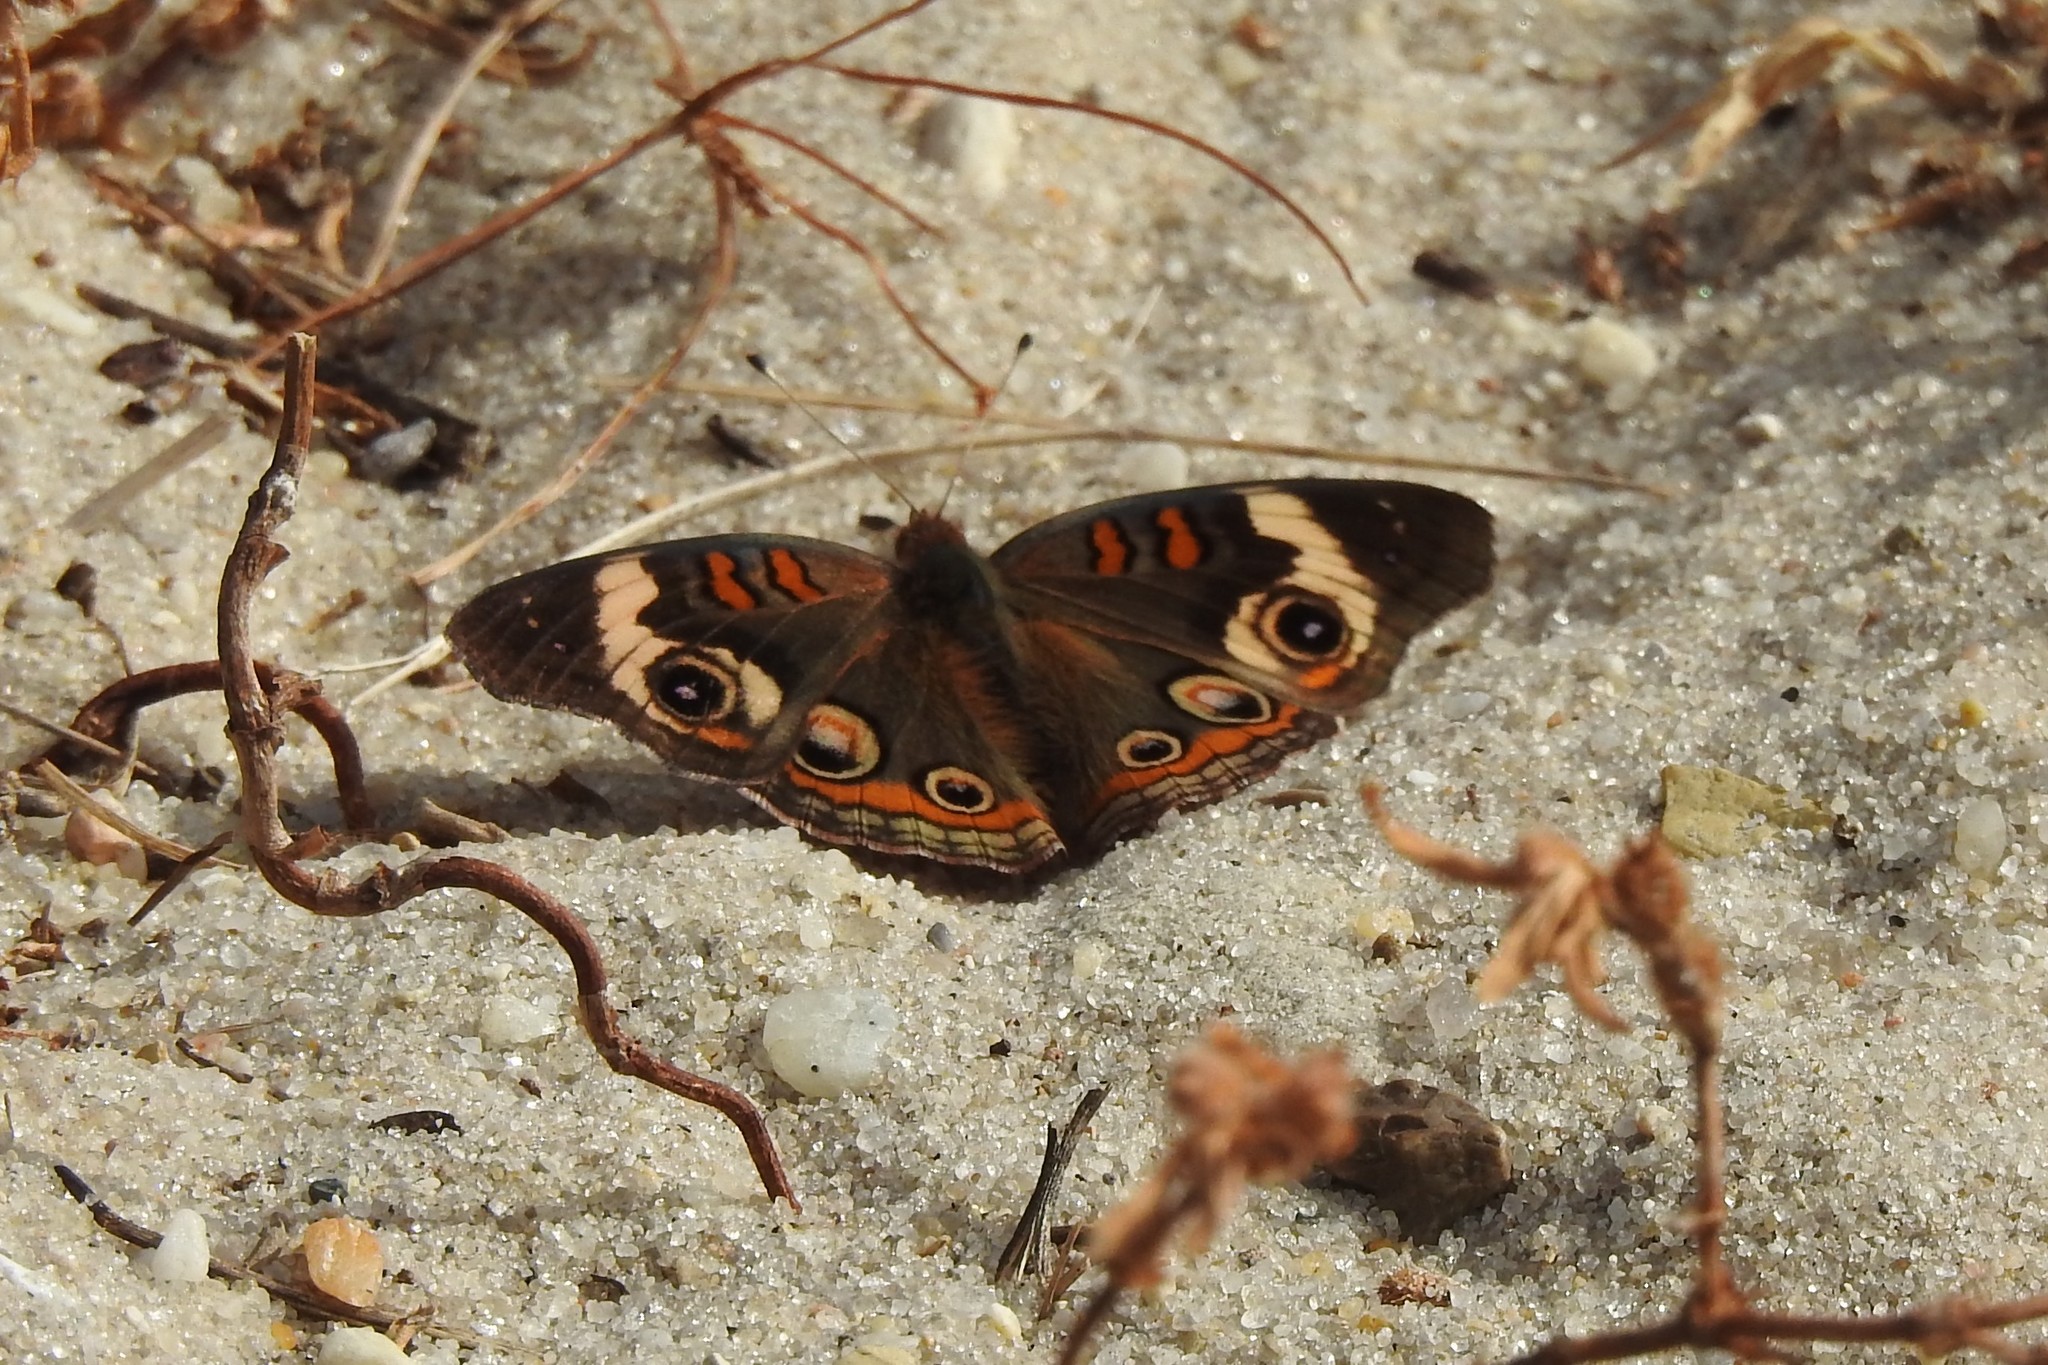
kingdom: Animalia
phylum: Arthropoda
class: Insecta
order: Lepidoptera
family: Nymphalidae
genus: Junonia
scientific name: Junonia coenia
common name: Common buckeye
